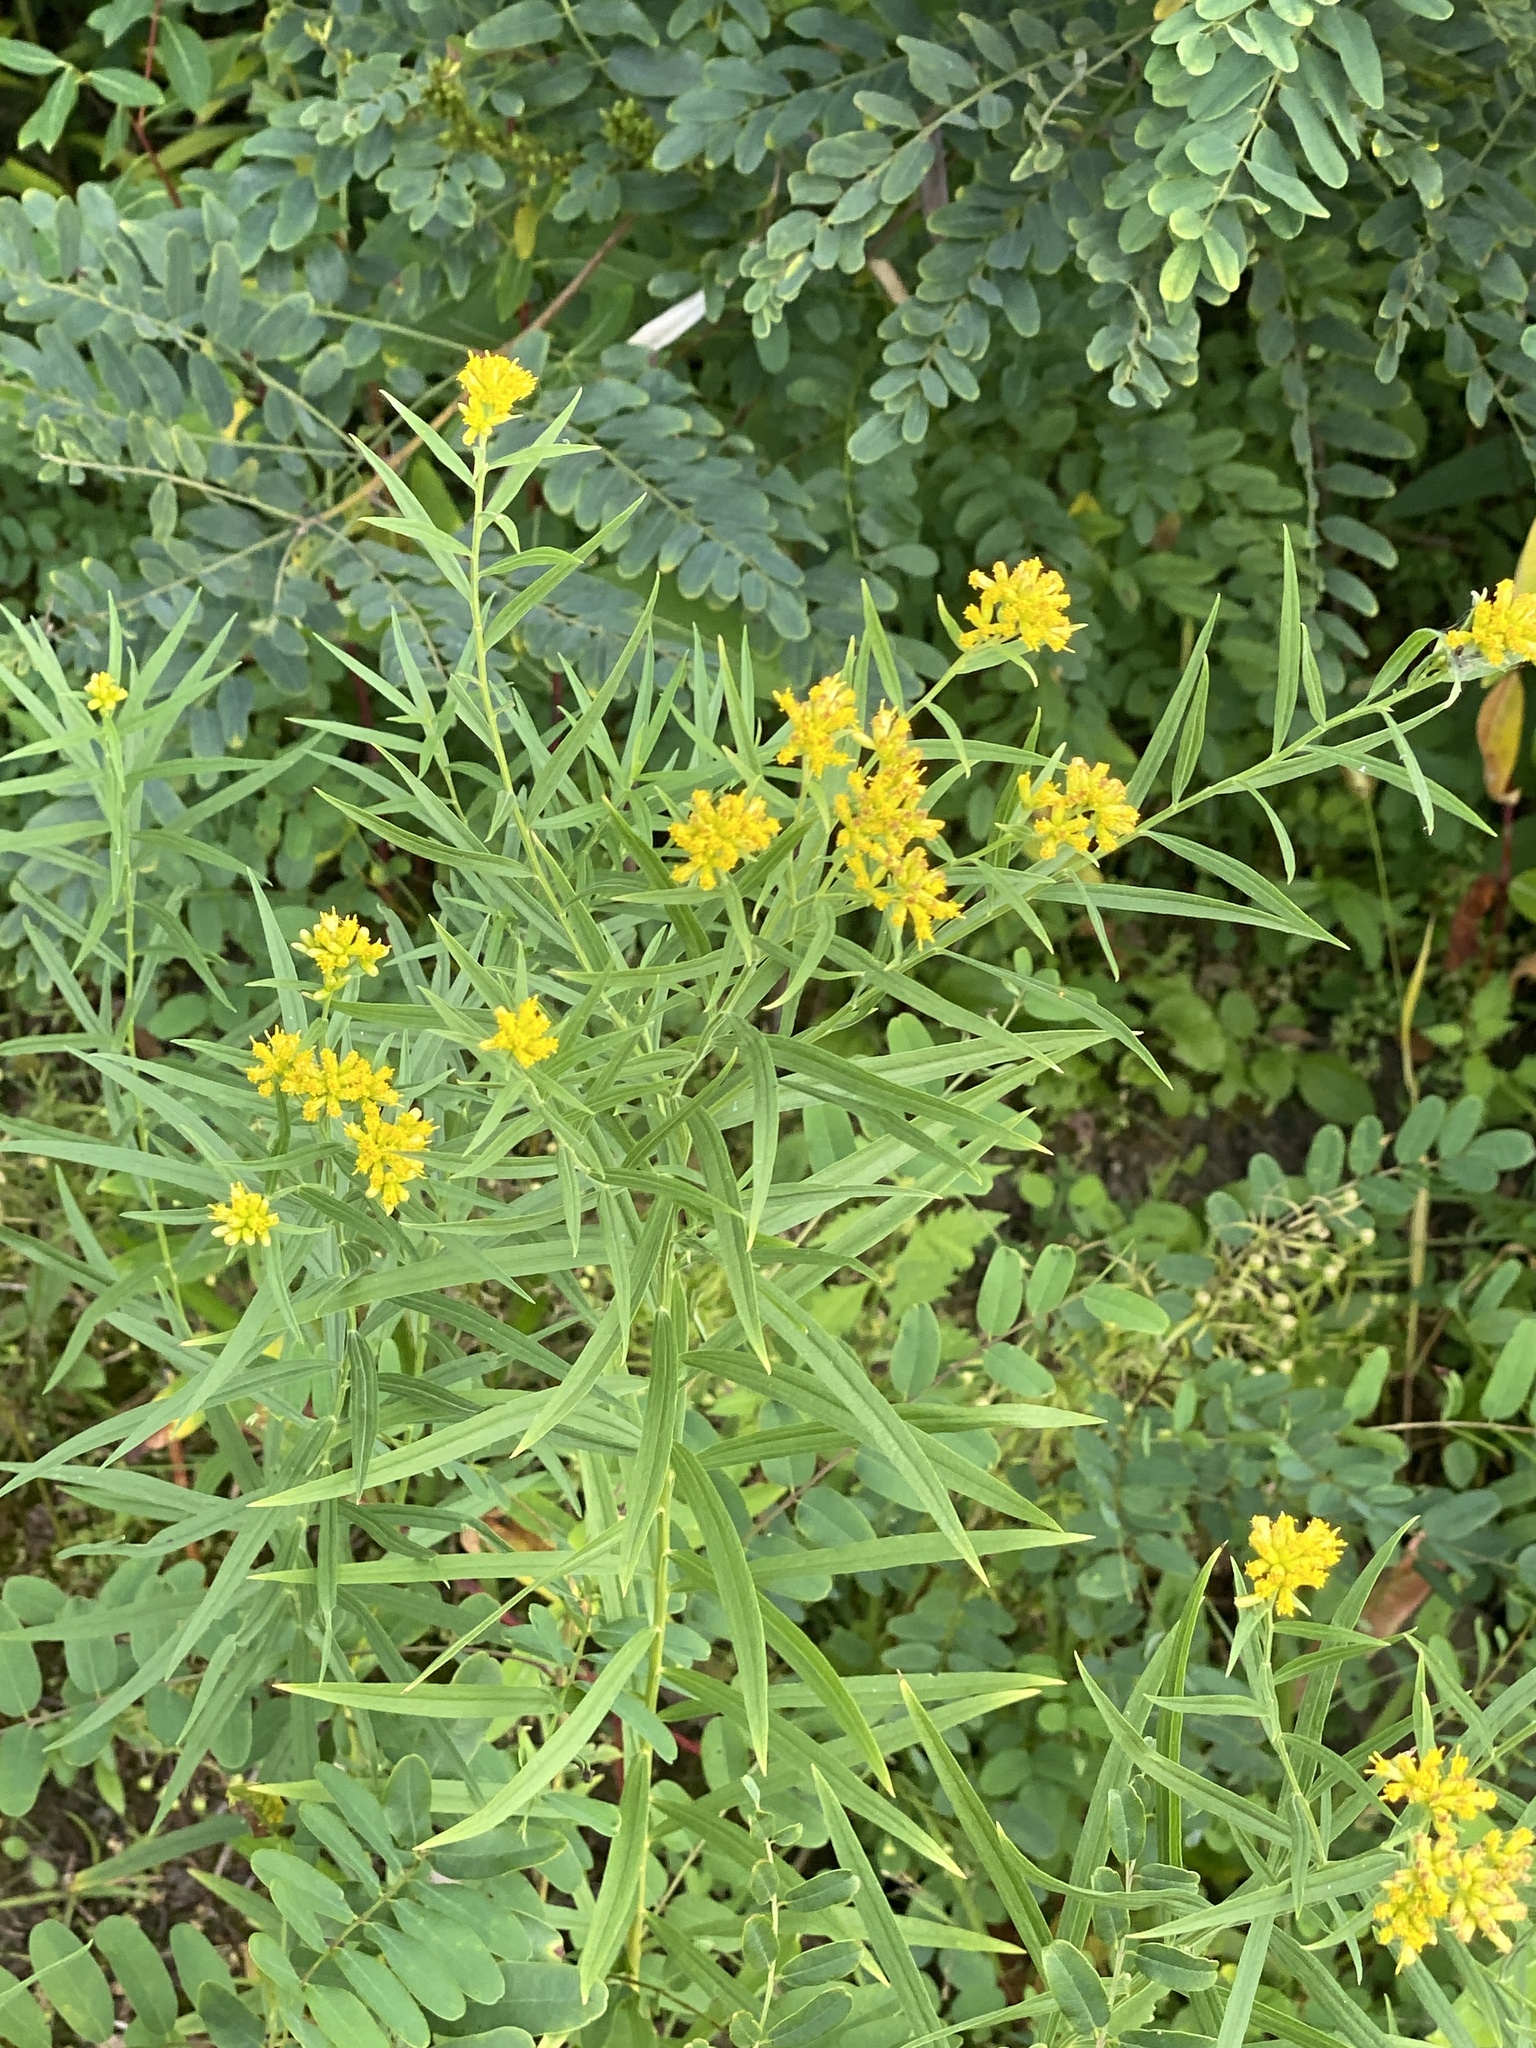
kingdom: Plantae
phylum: Tracheophyta
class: Magnoliopsida
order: Asterales
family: Asteraceae
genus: Euthamia
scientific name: Euthamia graminifolia
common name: Common goldentop
